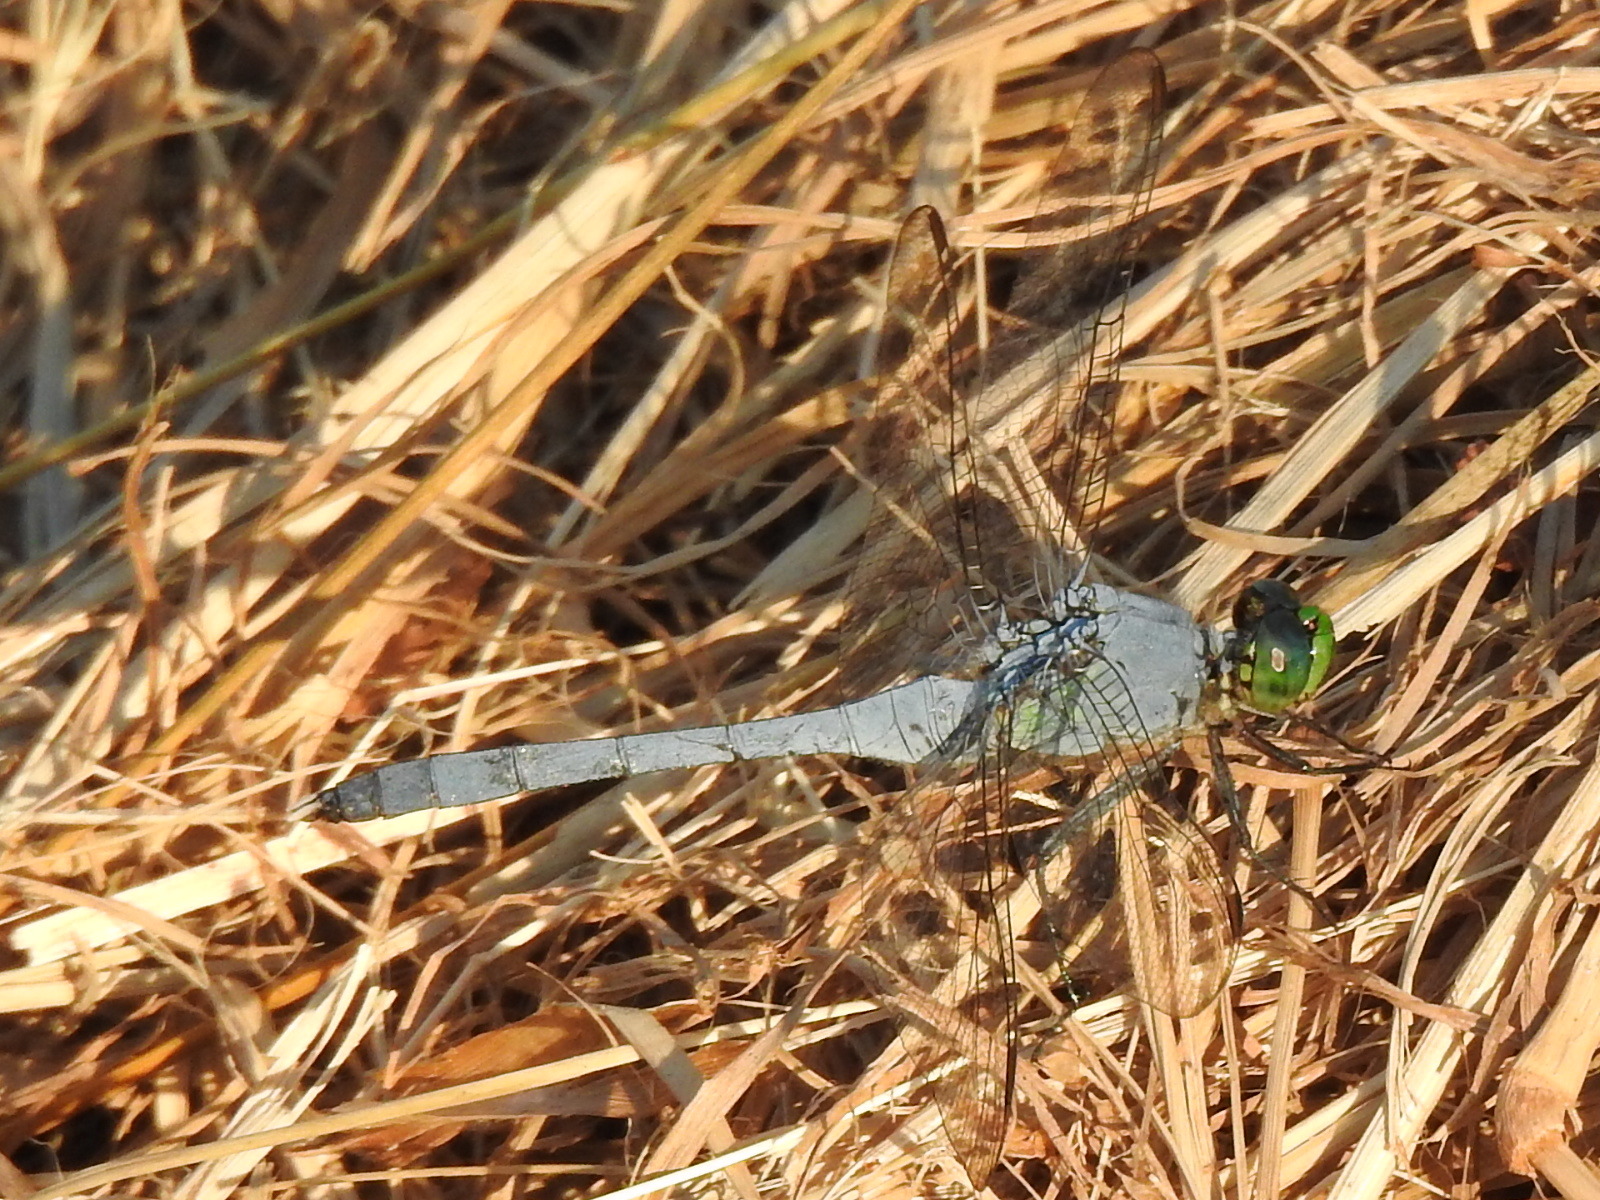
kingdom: Animalia
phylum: Arthropoda
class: Insecta
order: Odonata
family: Libellulidae
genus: Erythemis
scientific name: Erythemis simplicicollis
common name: Eastern pondhawk
